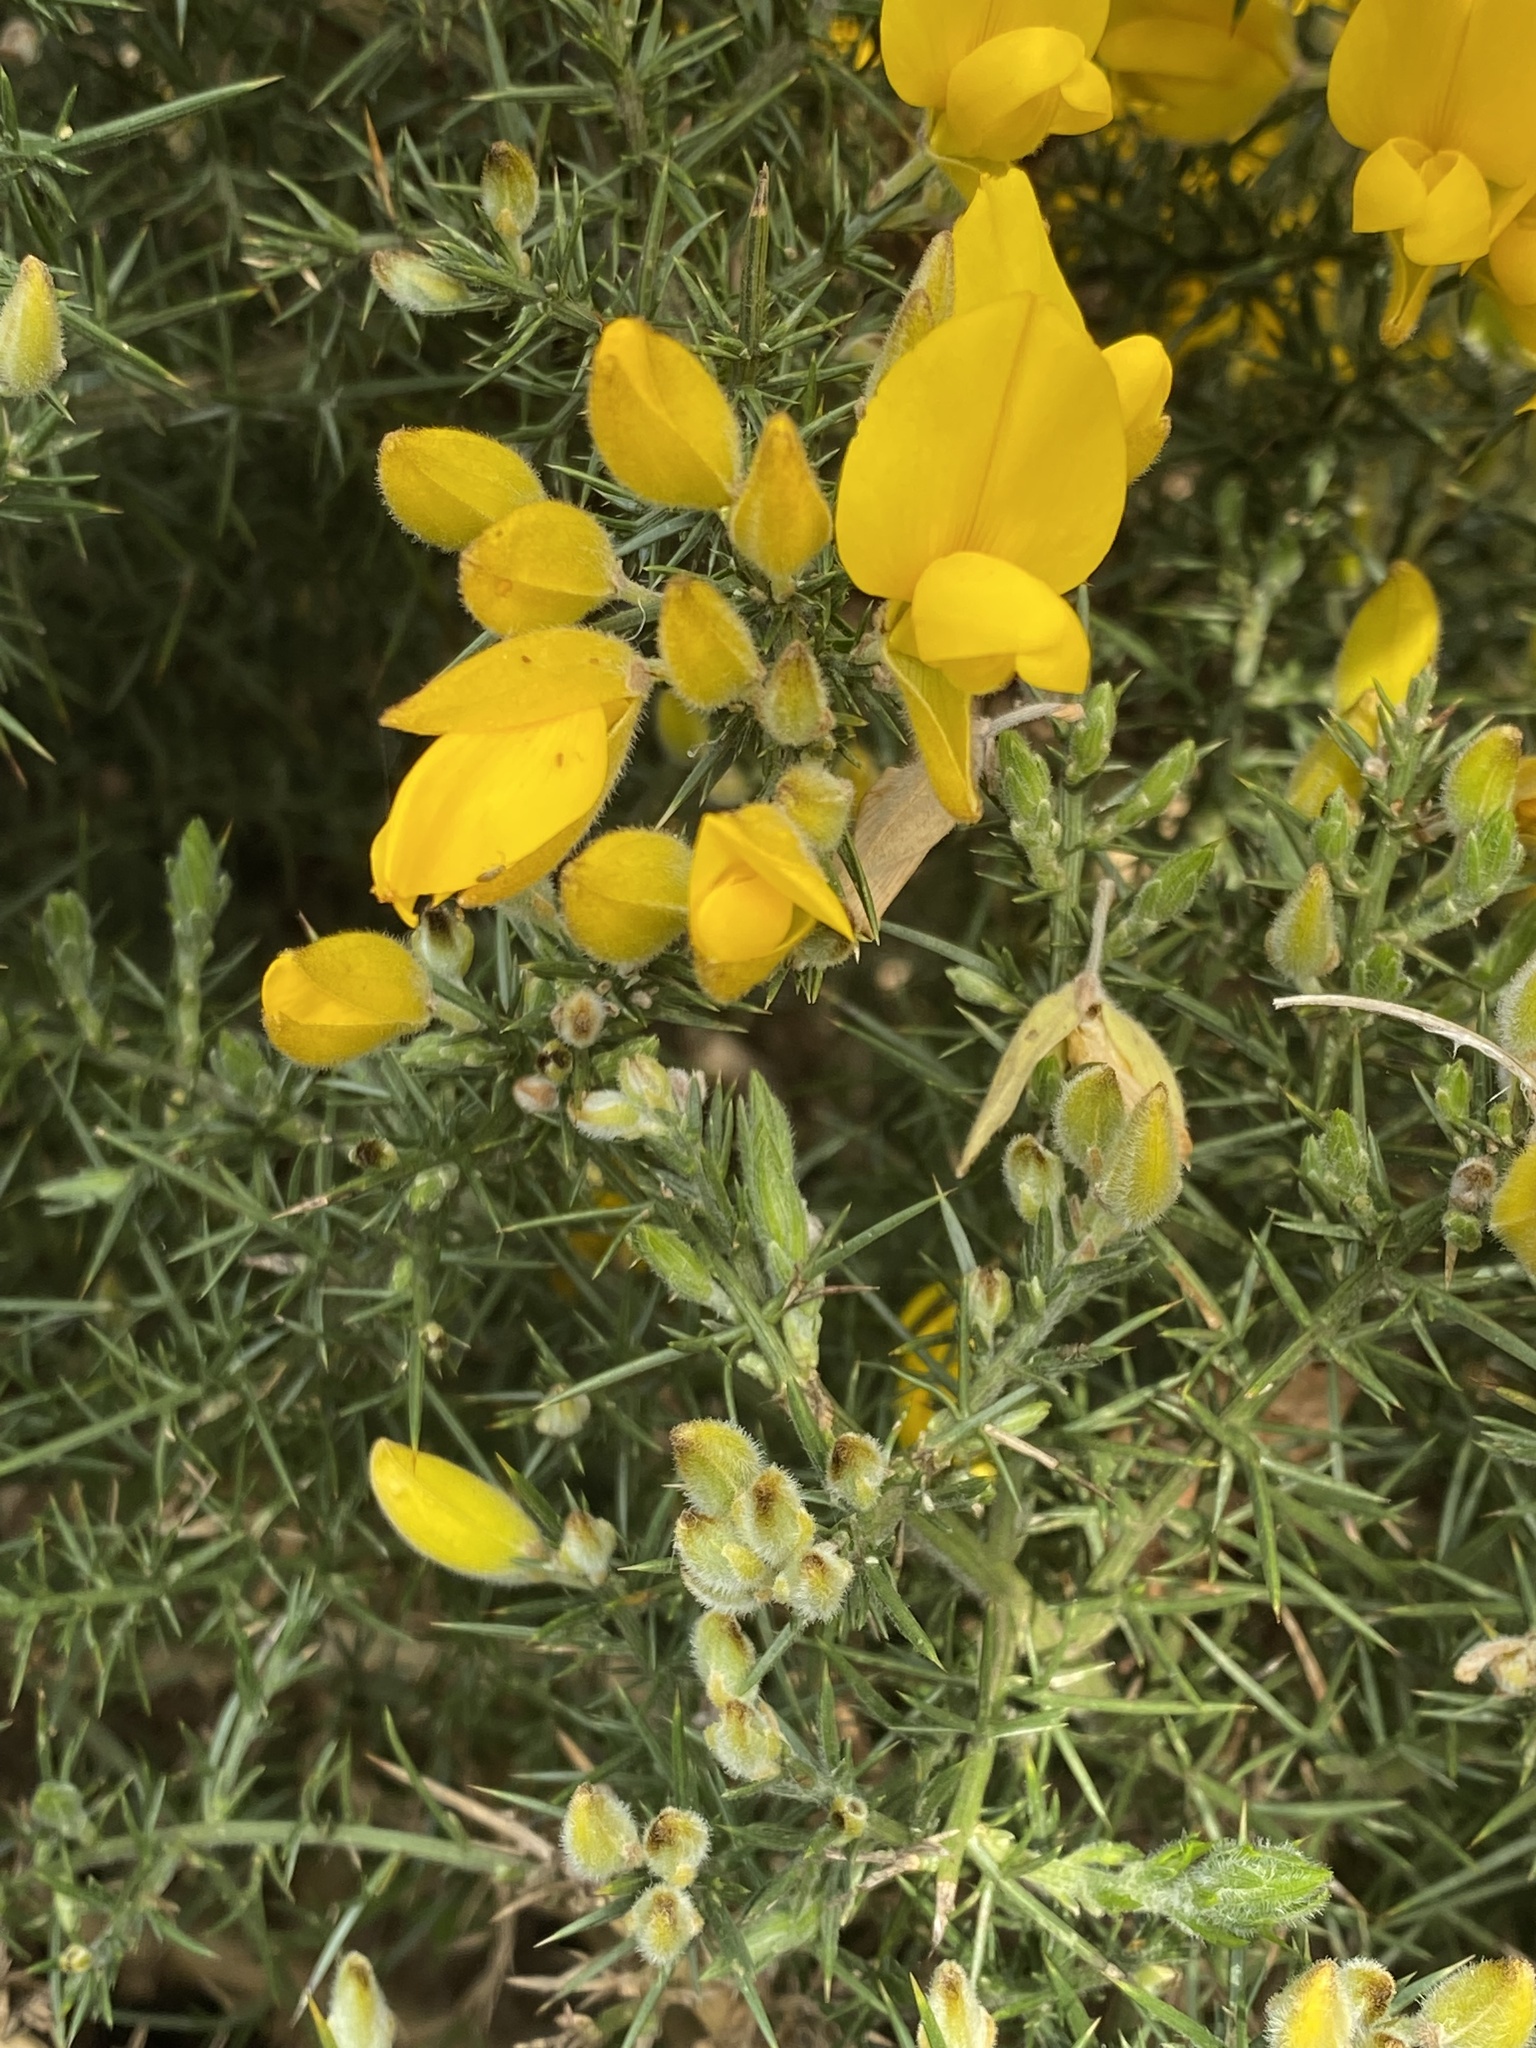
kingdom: Plantae
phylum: Tracheophyta
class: Magnoliopsida
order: Fabales
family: Fabaceae
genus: Ulex
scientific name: Ulex europaeus
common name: Common gorse
